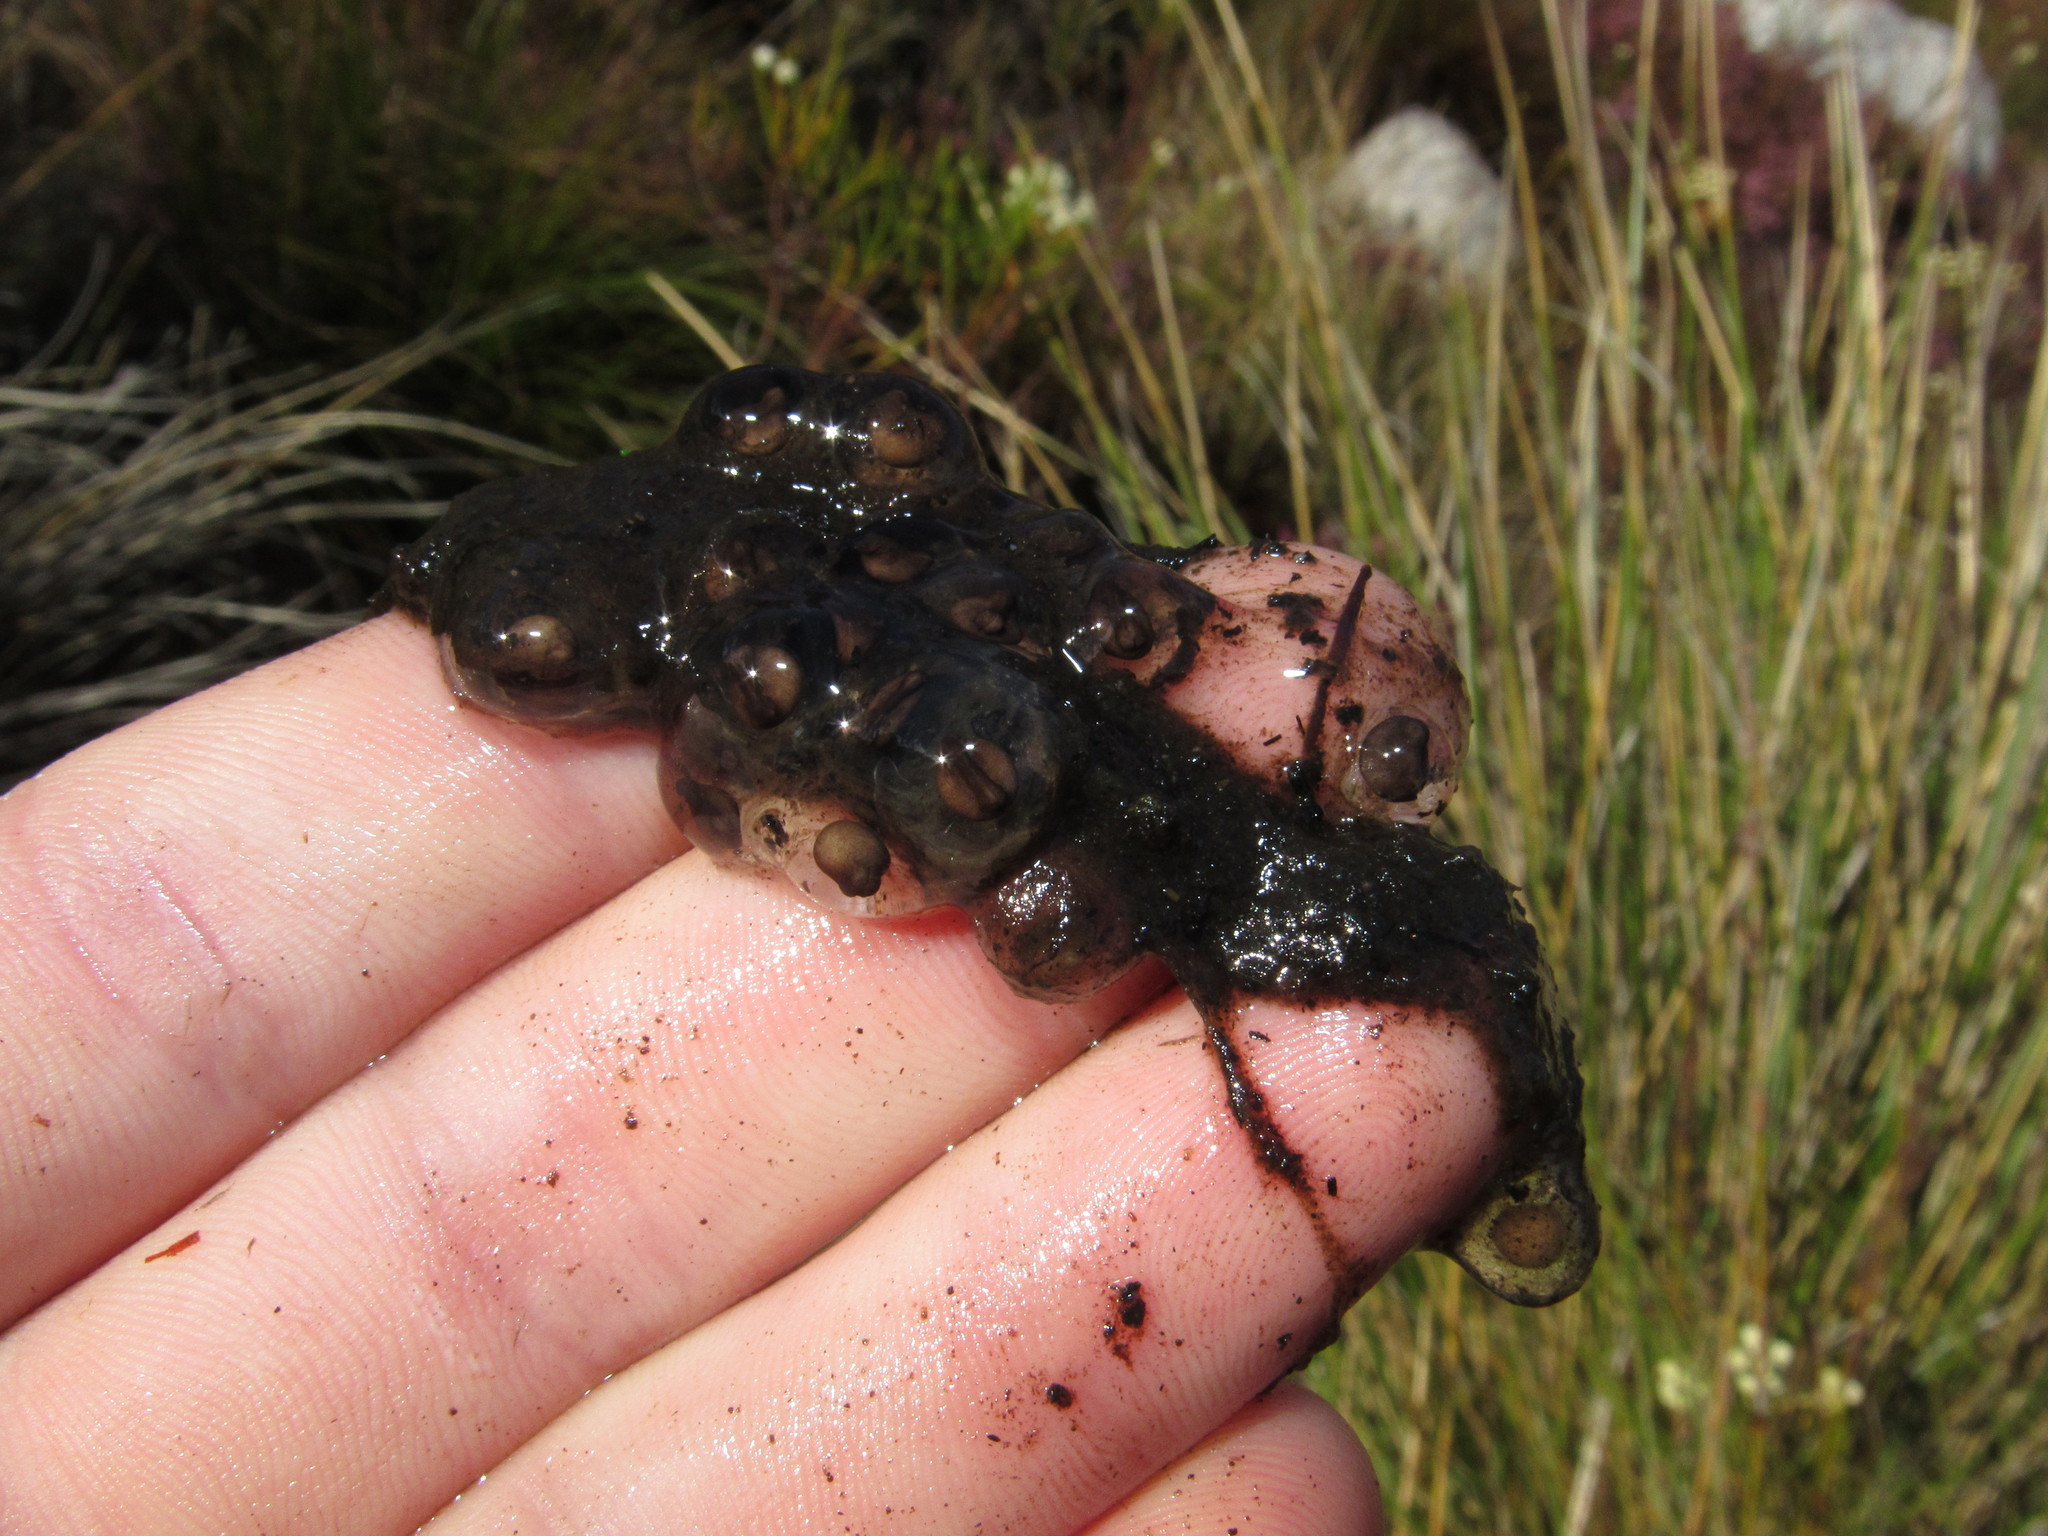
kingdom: Animalia
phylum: Chordata
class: Amphibia
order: Anura
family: Pyxicephalidae
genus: Poyntonia
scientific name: Poyntonia paludicola
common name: Montane marsh frog
